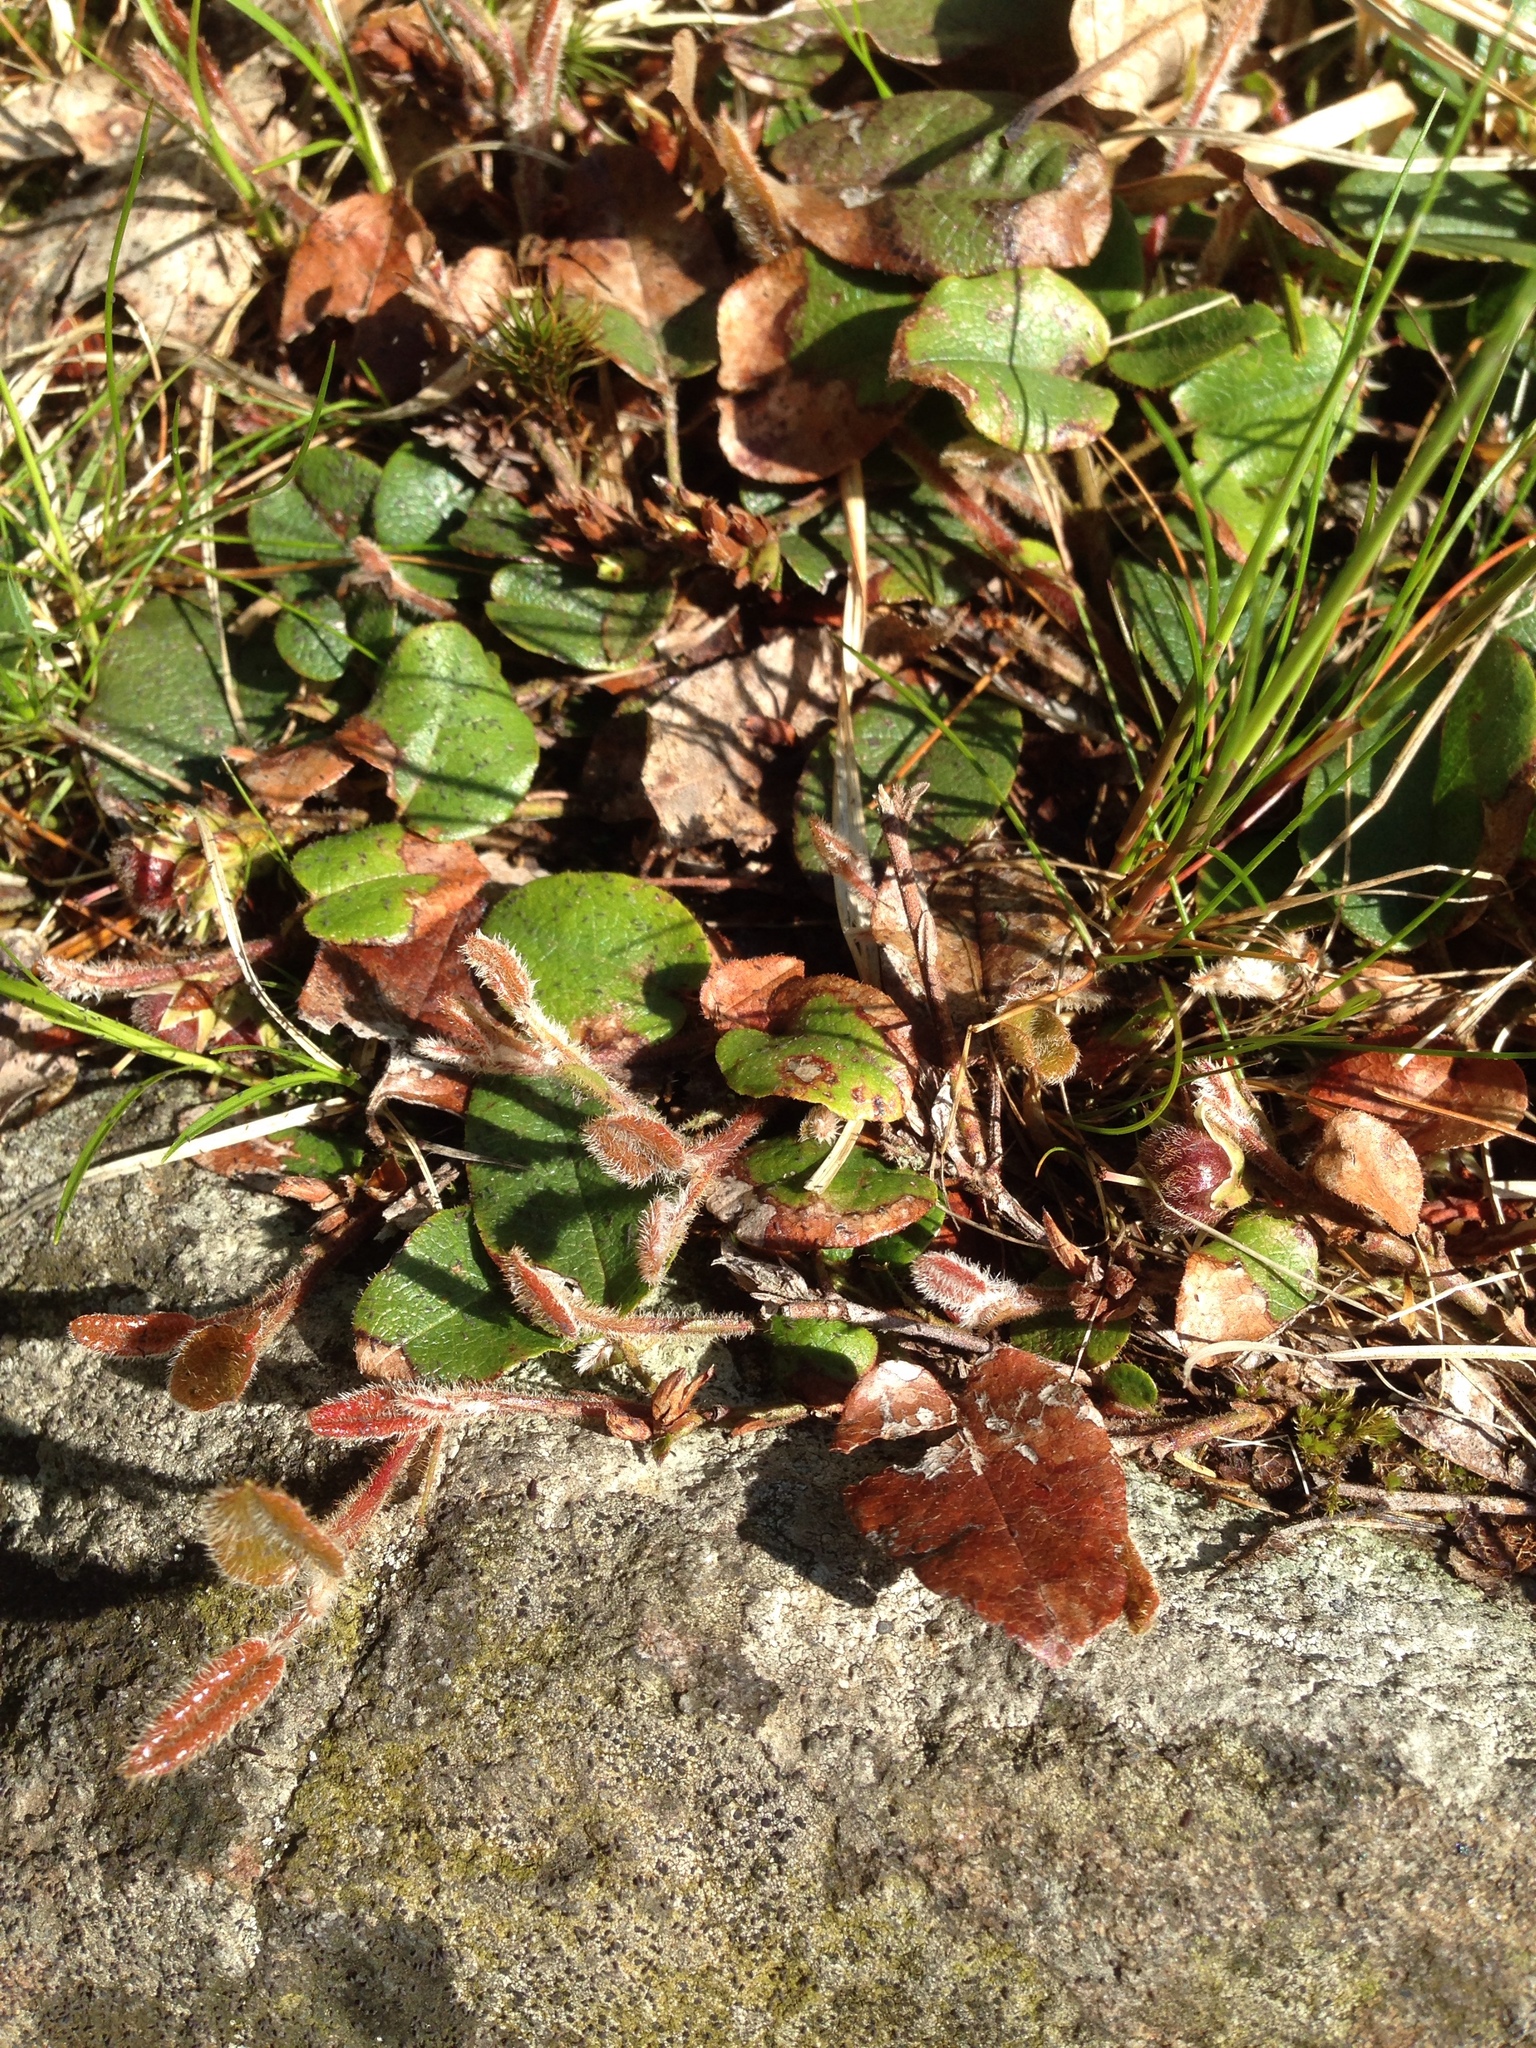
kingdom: Plantae
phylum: Tracheophyta
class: Magnoliopsida
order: Ericales
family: Ericaceae
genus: Epigaea
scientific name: Epigaea repens
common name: Gravelroot
